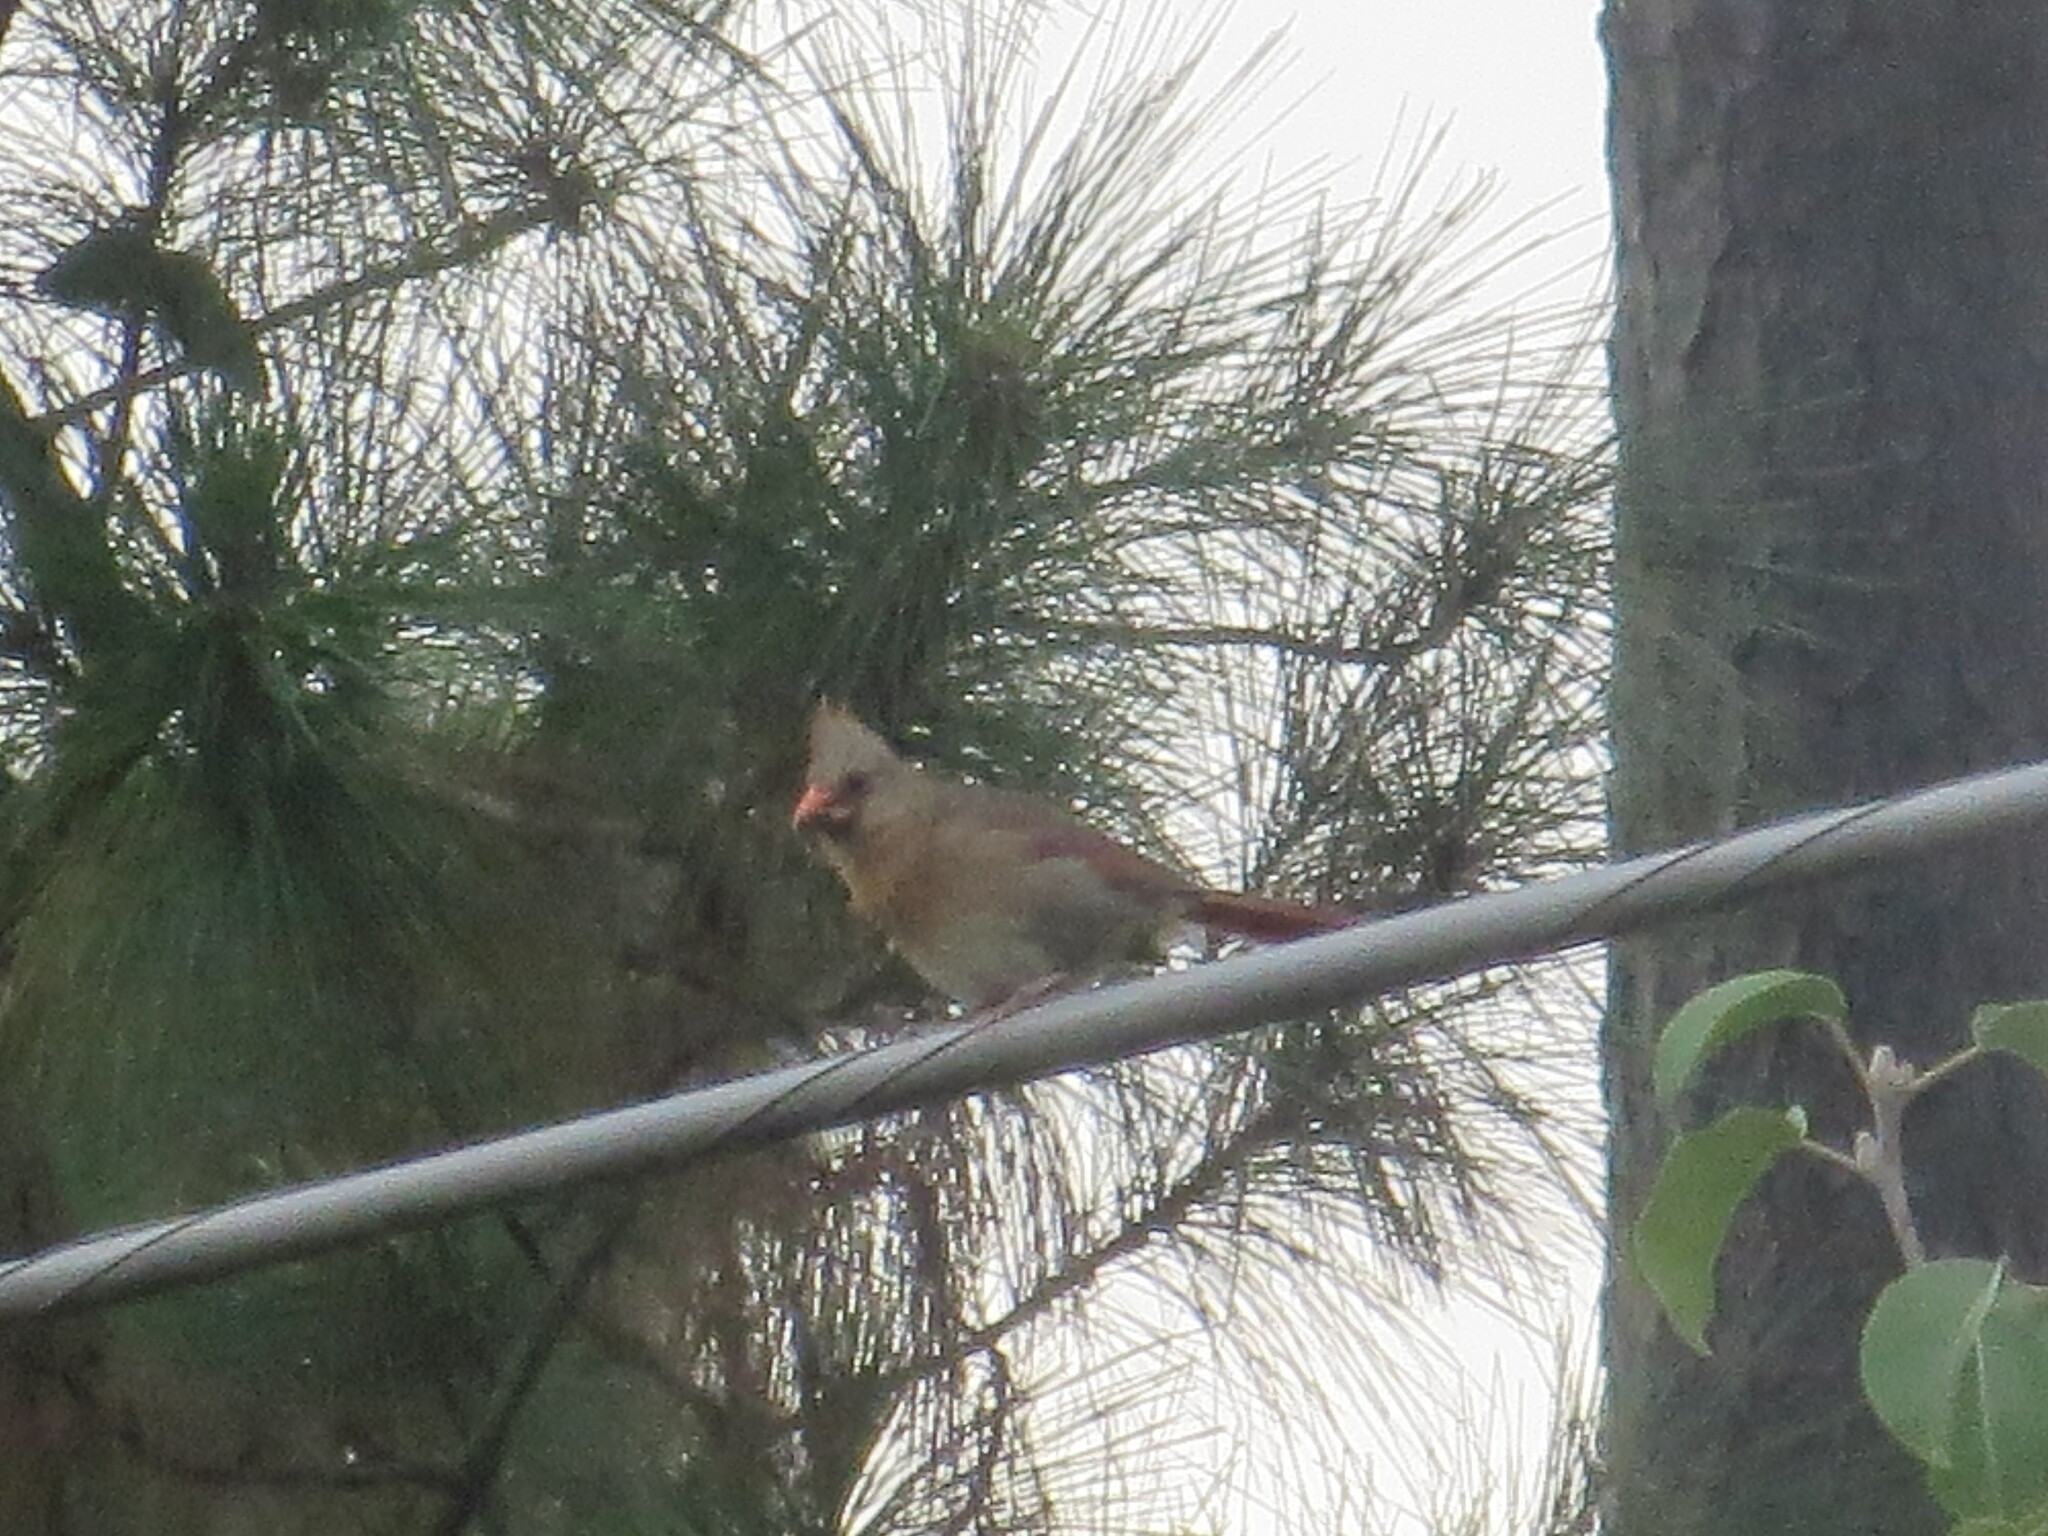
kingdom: Animalia
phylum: Chordata
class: Aves
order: Passeriformes
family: Cardinalidae
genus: Cardinalis
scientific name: Cardinalis cardinalis
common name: Northern cardinal
